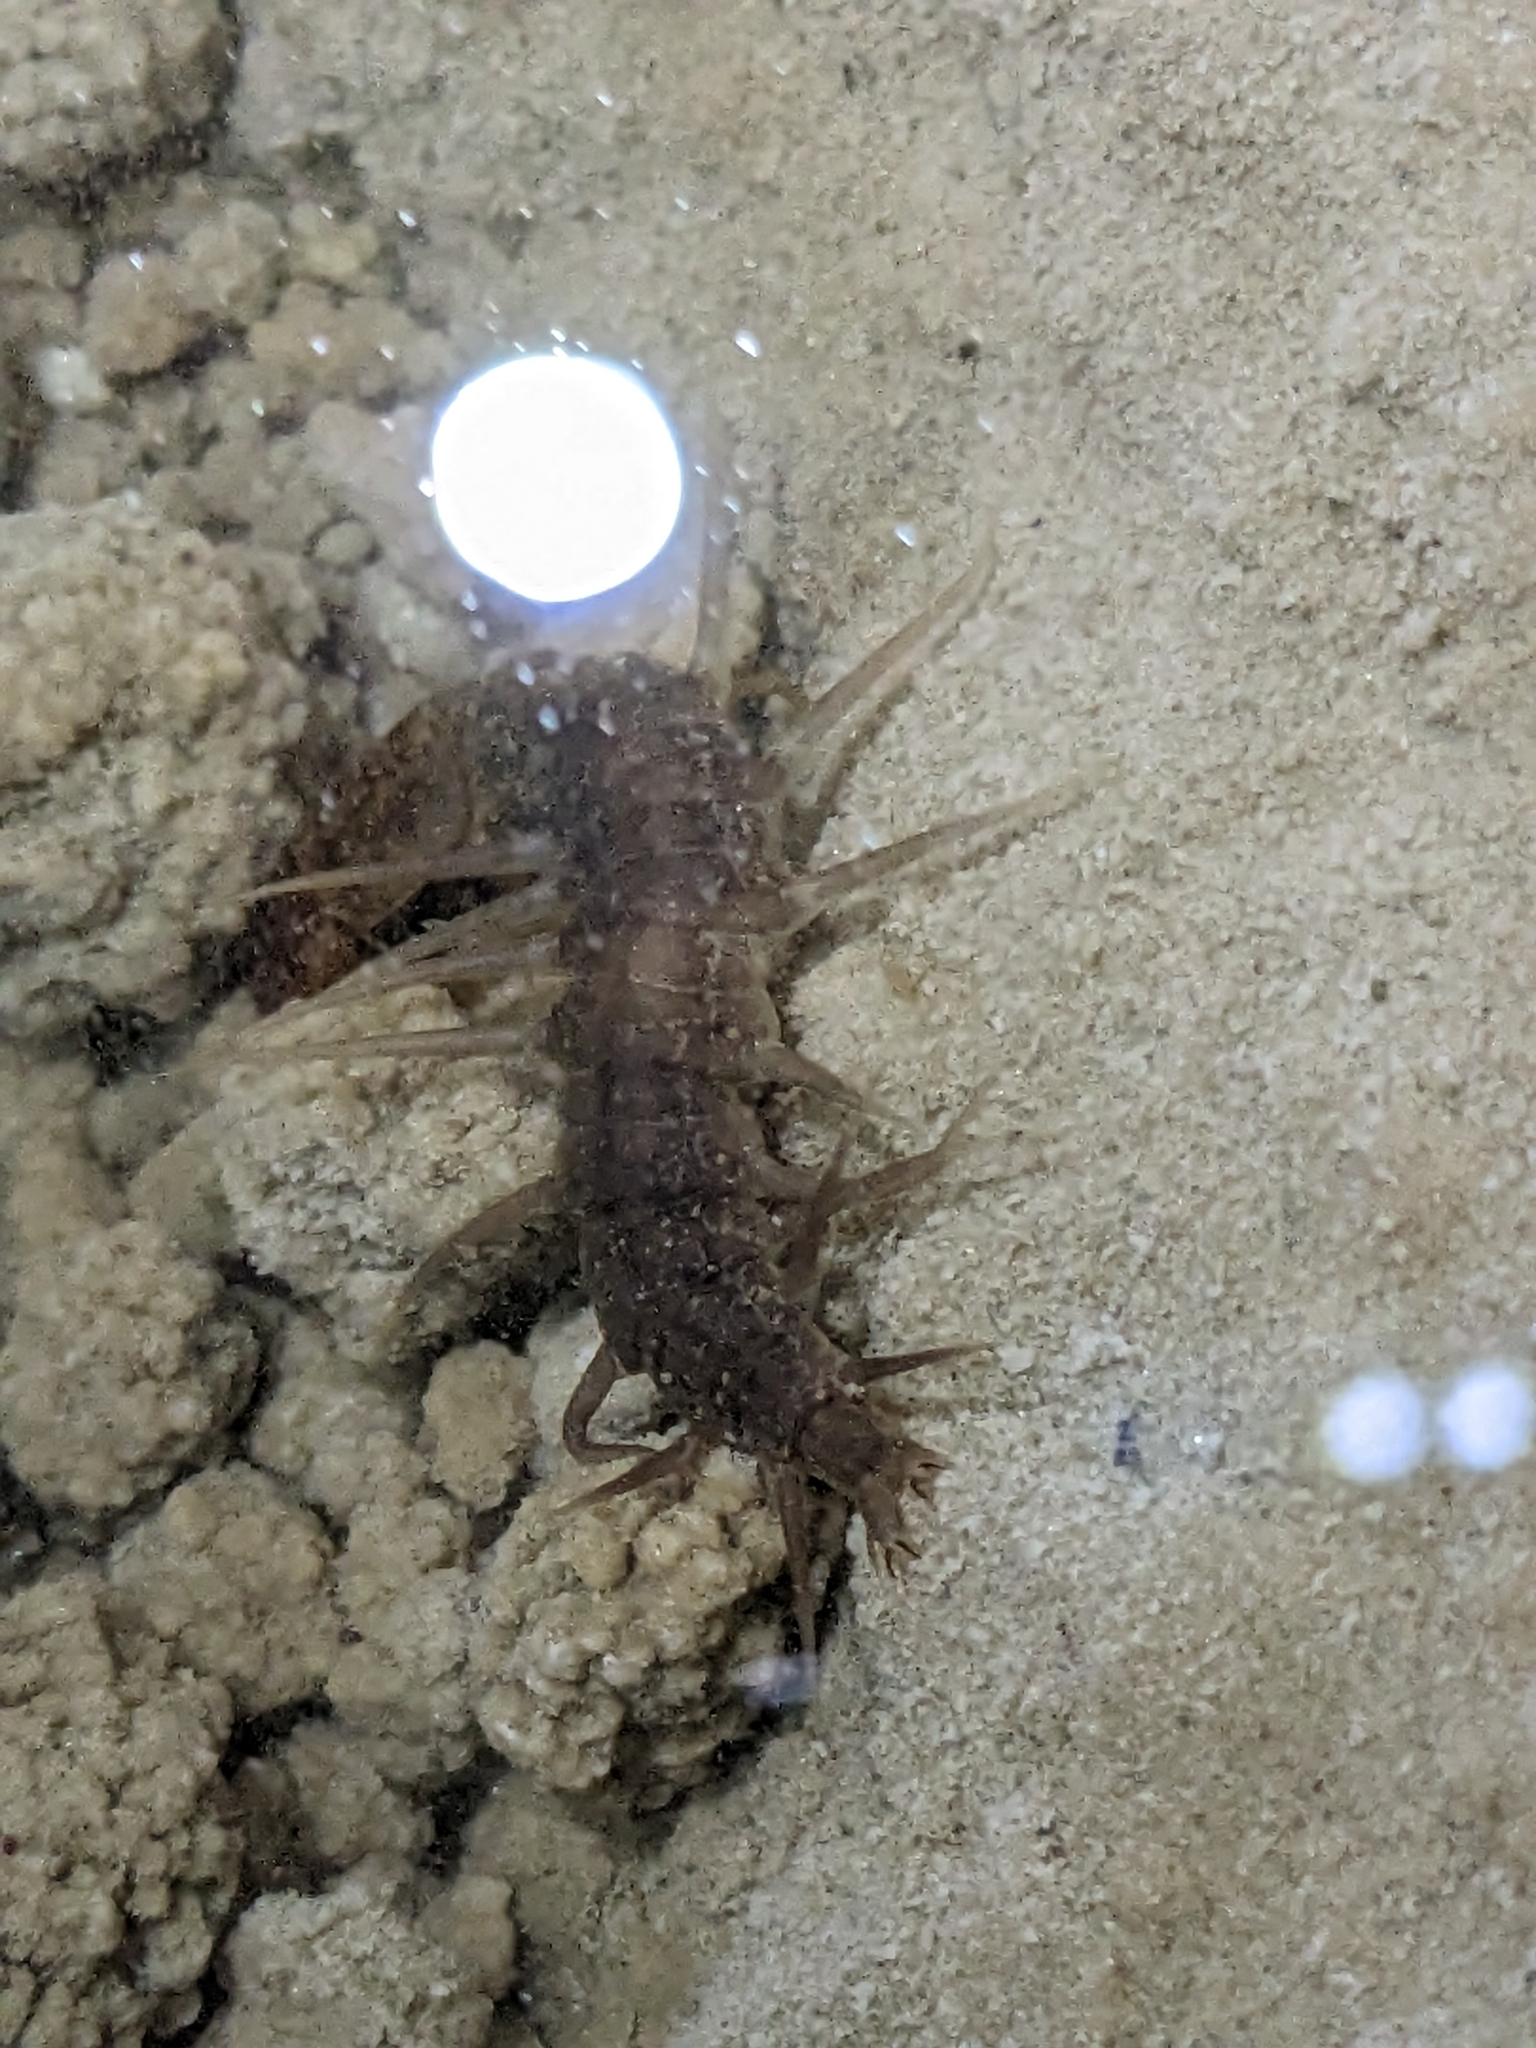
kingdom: Animalia
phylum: Arthropoda
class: Insecta
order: Megaloptera
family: Corydalidae
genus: Neohermes
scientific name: Neohermes filicornis
